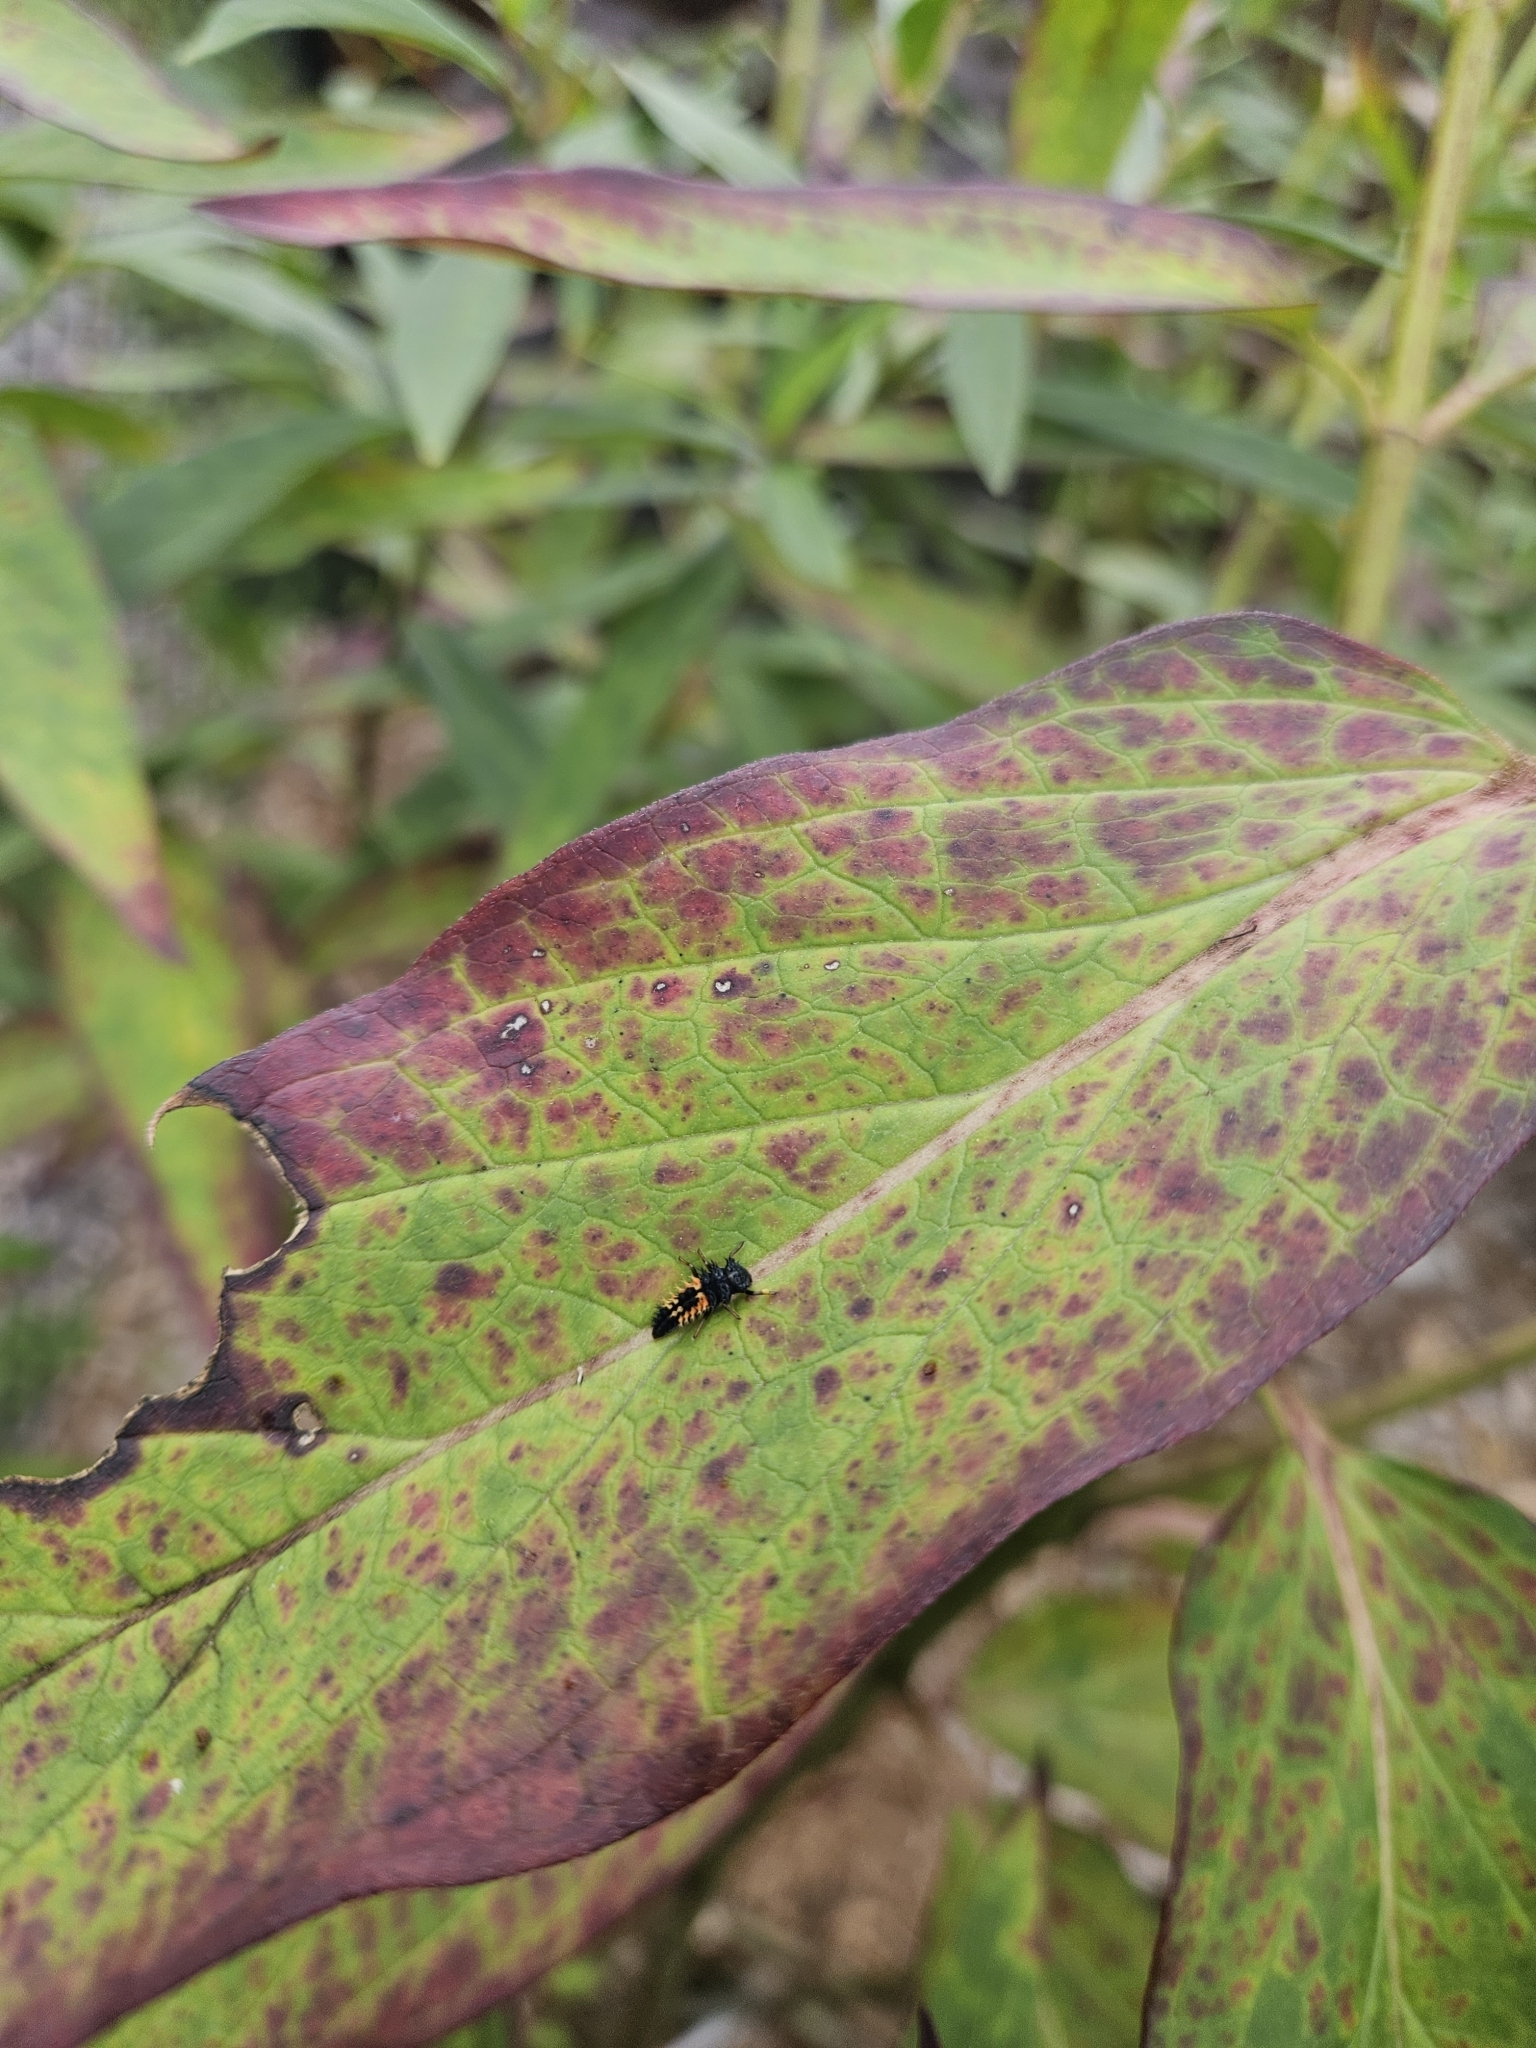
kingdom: Animalia
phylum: Arthropoda
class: Insecta
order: Coleoptera
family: Coccinellidae
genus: Harmonia
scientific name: Harmonia axyridis
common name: Harlequin ladybird
